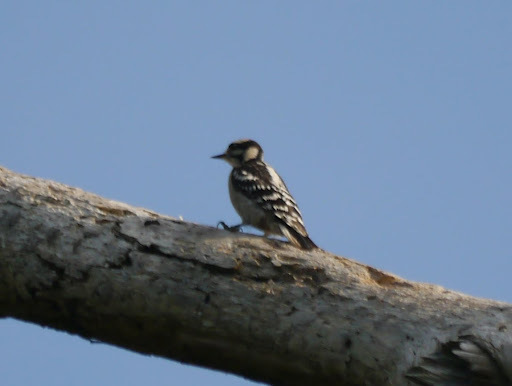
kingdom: Animalia
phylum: Chordata
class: Aves
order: Piciformes
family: Picidae
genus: Dryobates
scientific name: Dryobates pubescens
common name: Downy woodpecker
